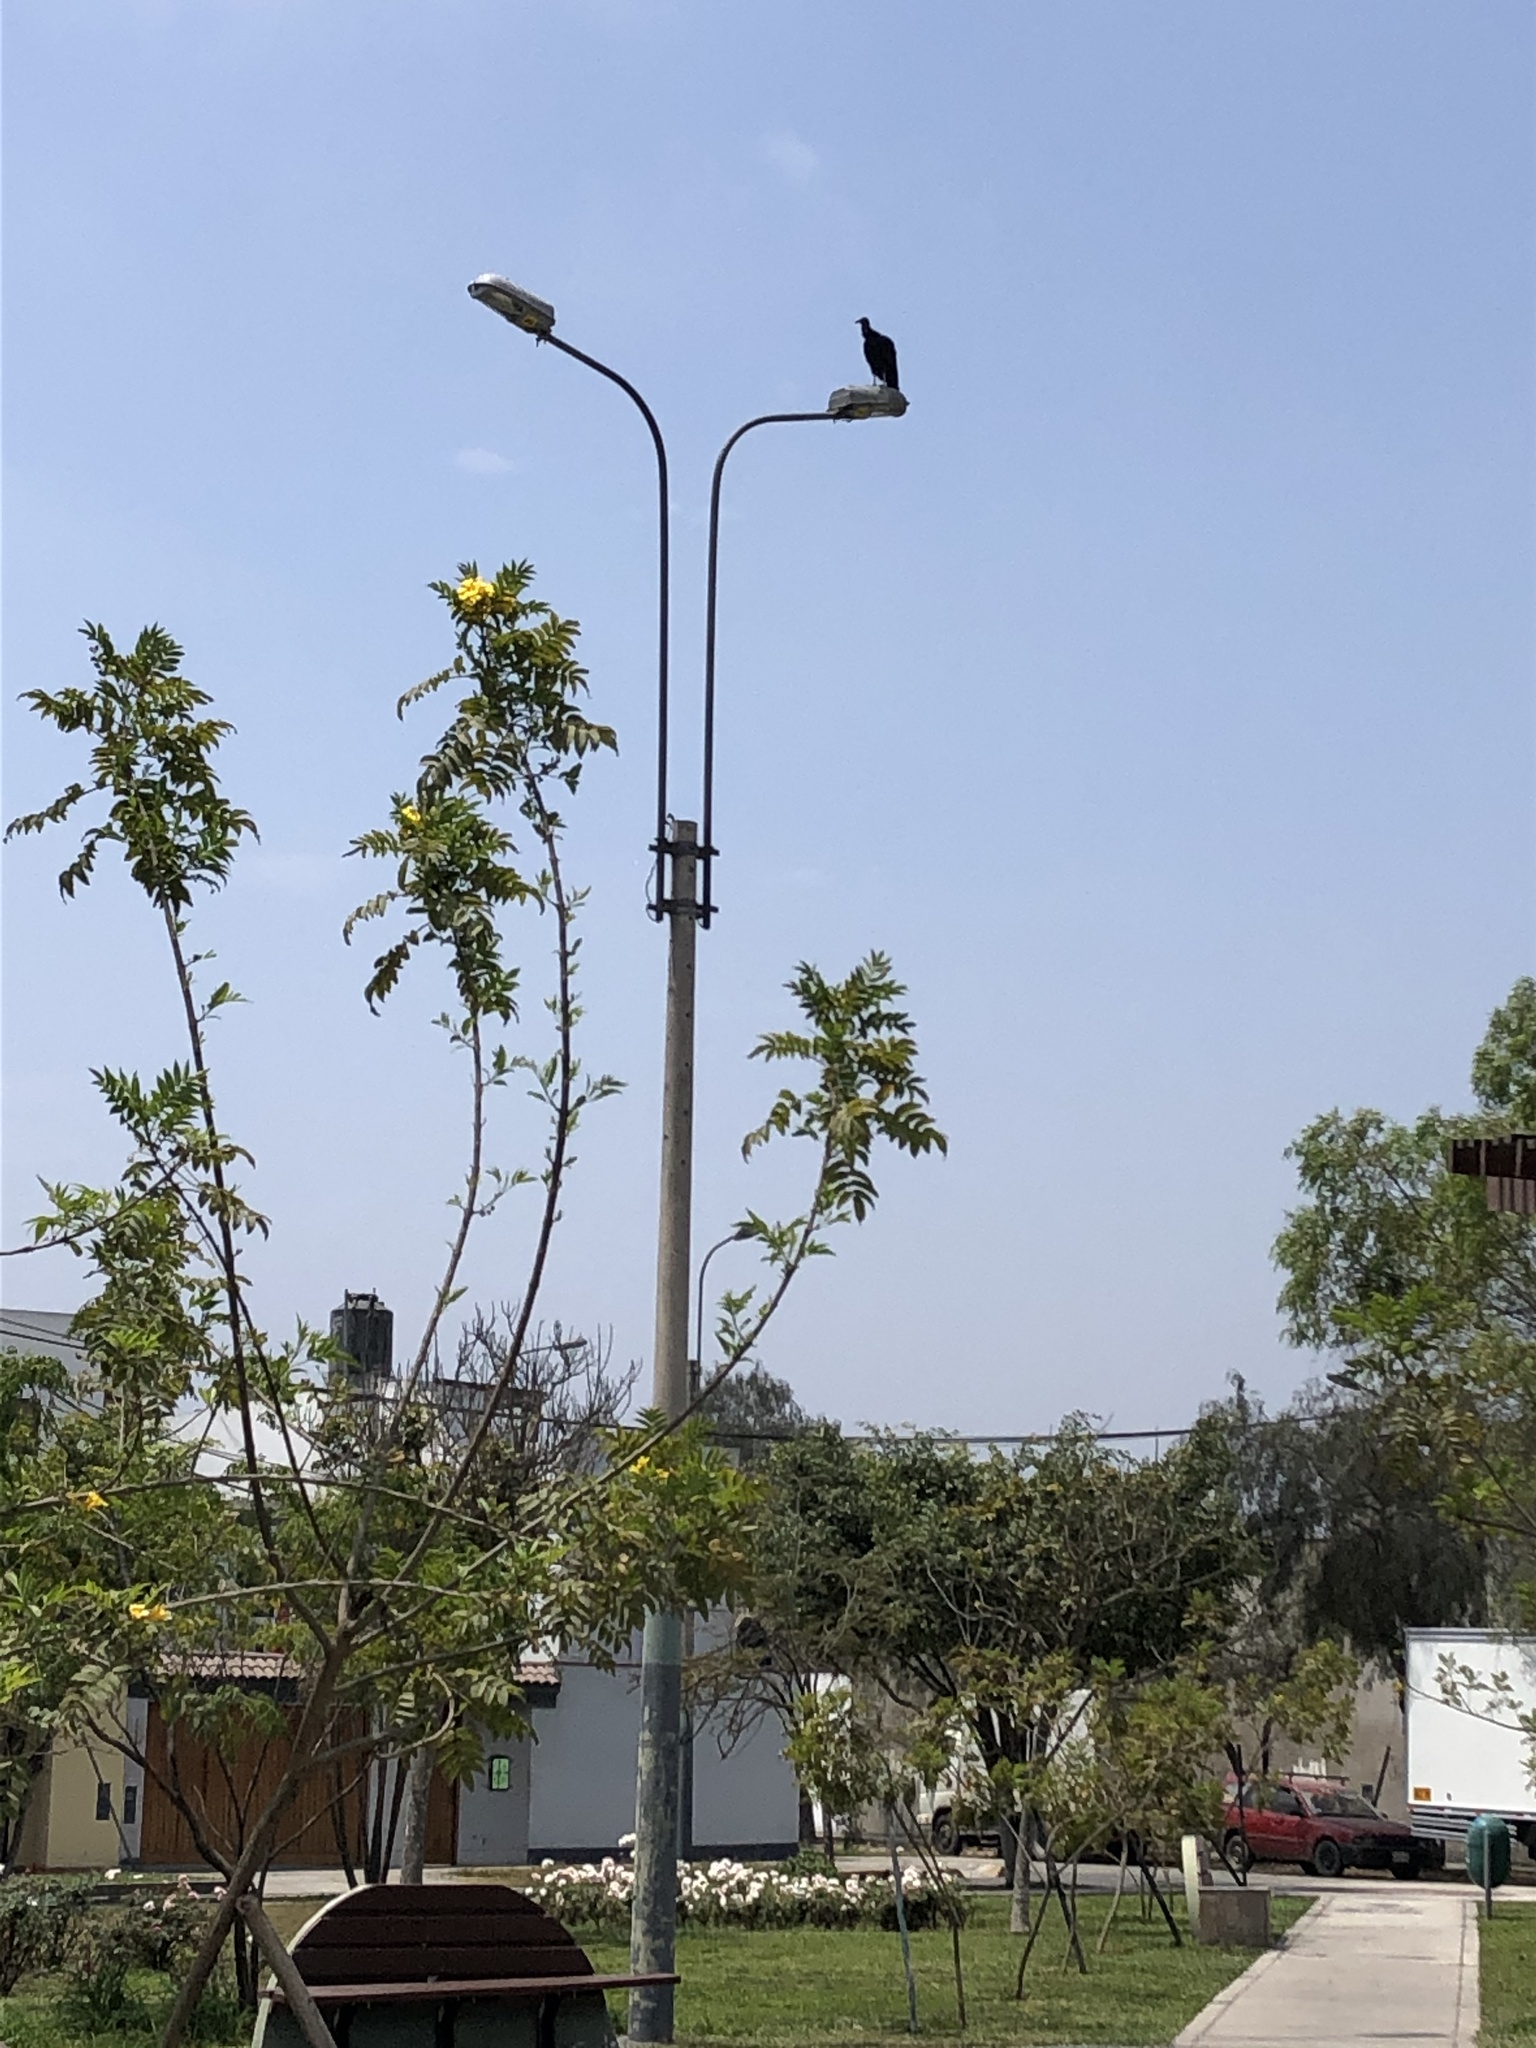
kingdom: Animalia
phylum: Chordata
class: Aves
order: Accipitriformes
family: Cathartidae
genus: Coragyps
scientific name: Coragyps atratus
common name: Black vulture
